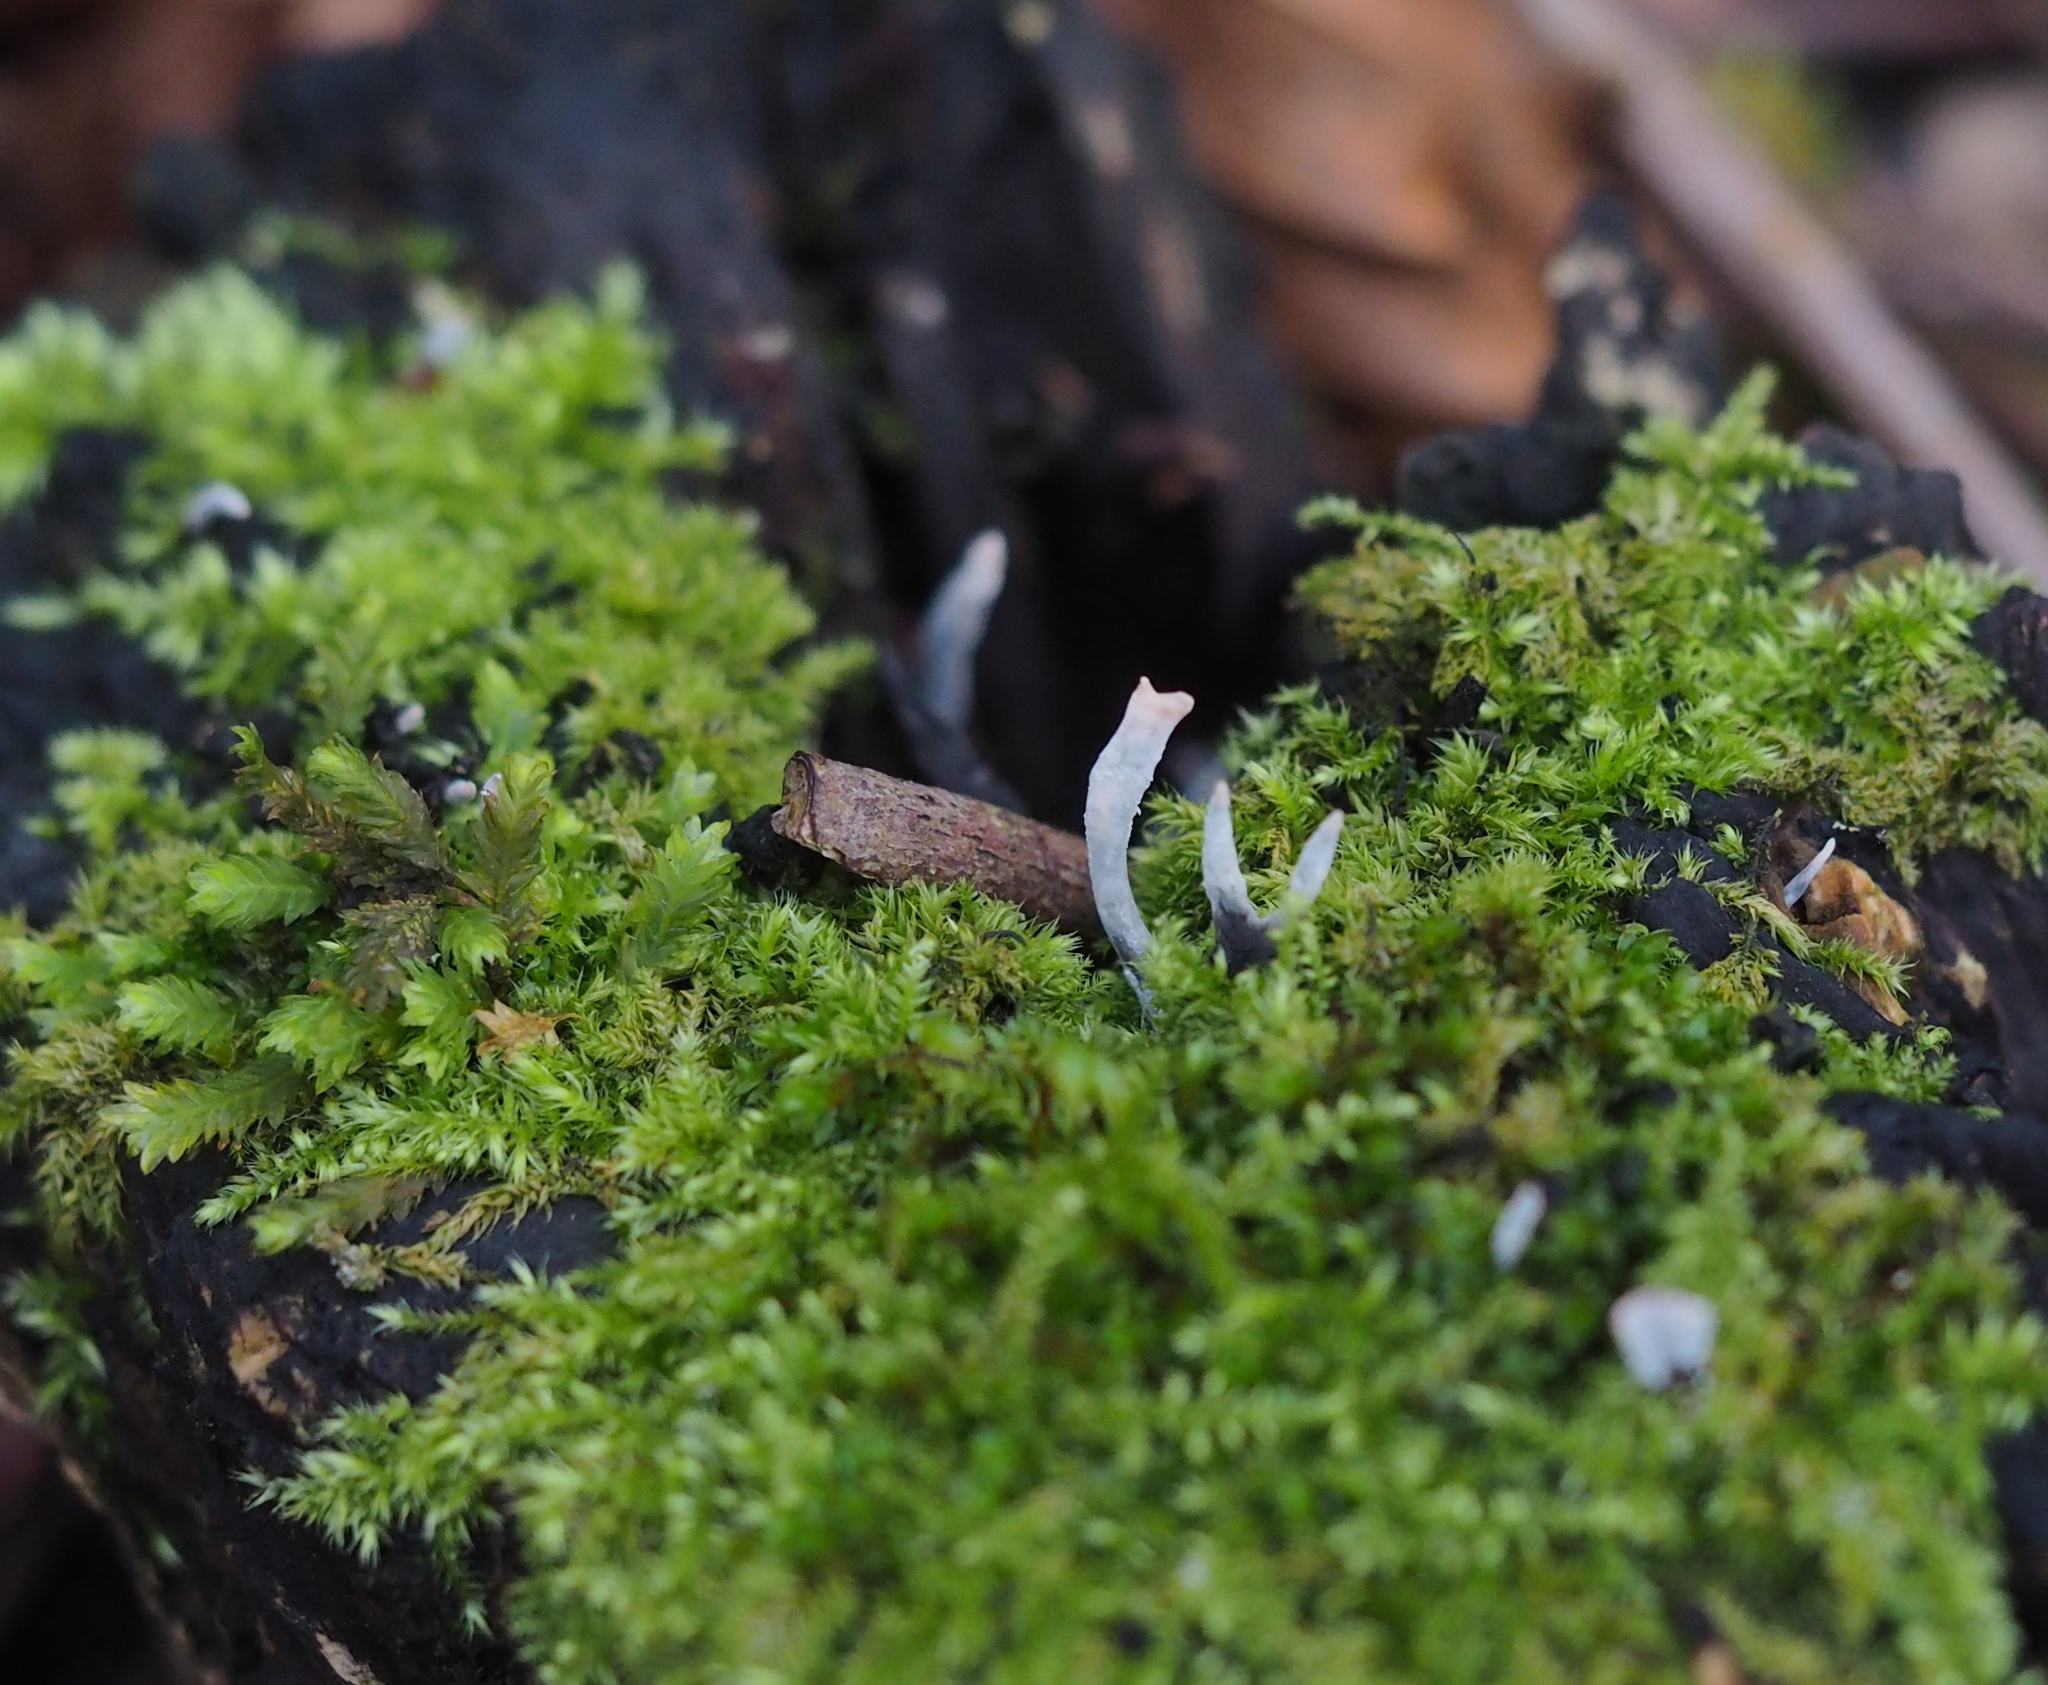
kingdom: Fungi
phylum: Ascomycota
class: Sordariomycetes
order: Xylariales
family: Xylariaceae
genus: Xylaria
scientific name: Xylaria hypoxylon
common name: Candle-snuff fungus
